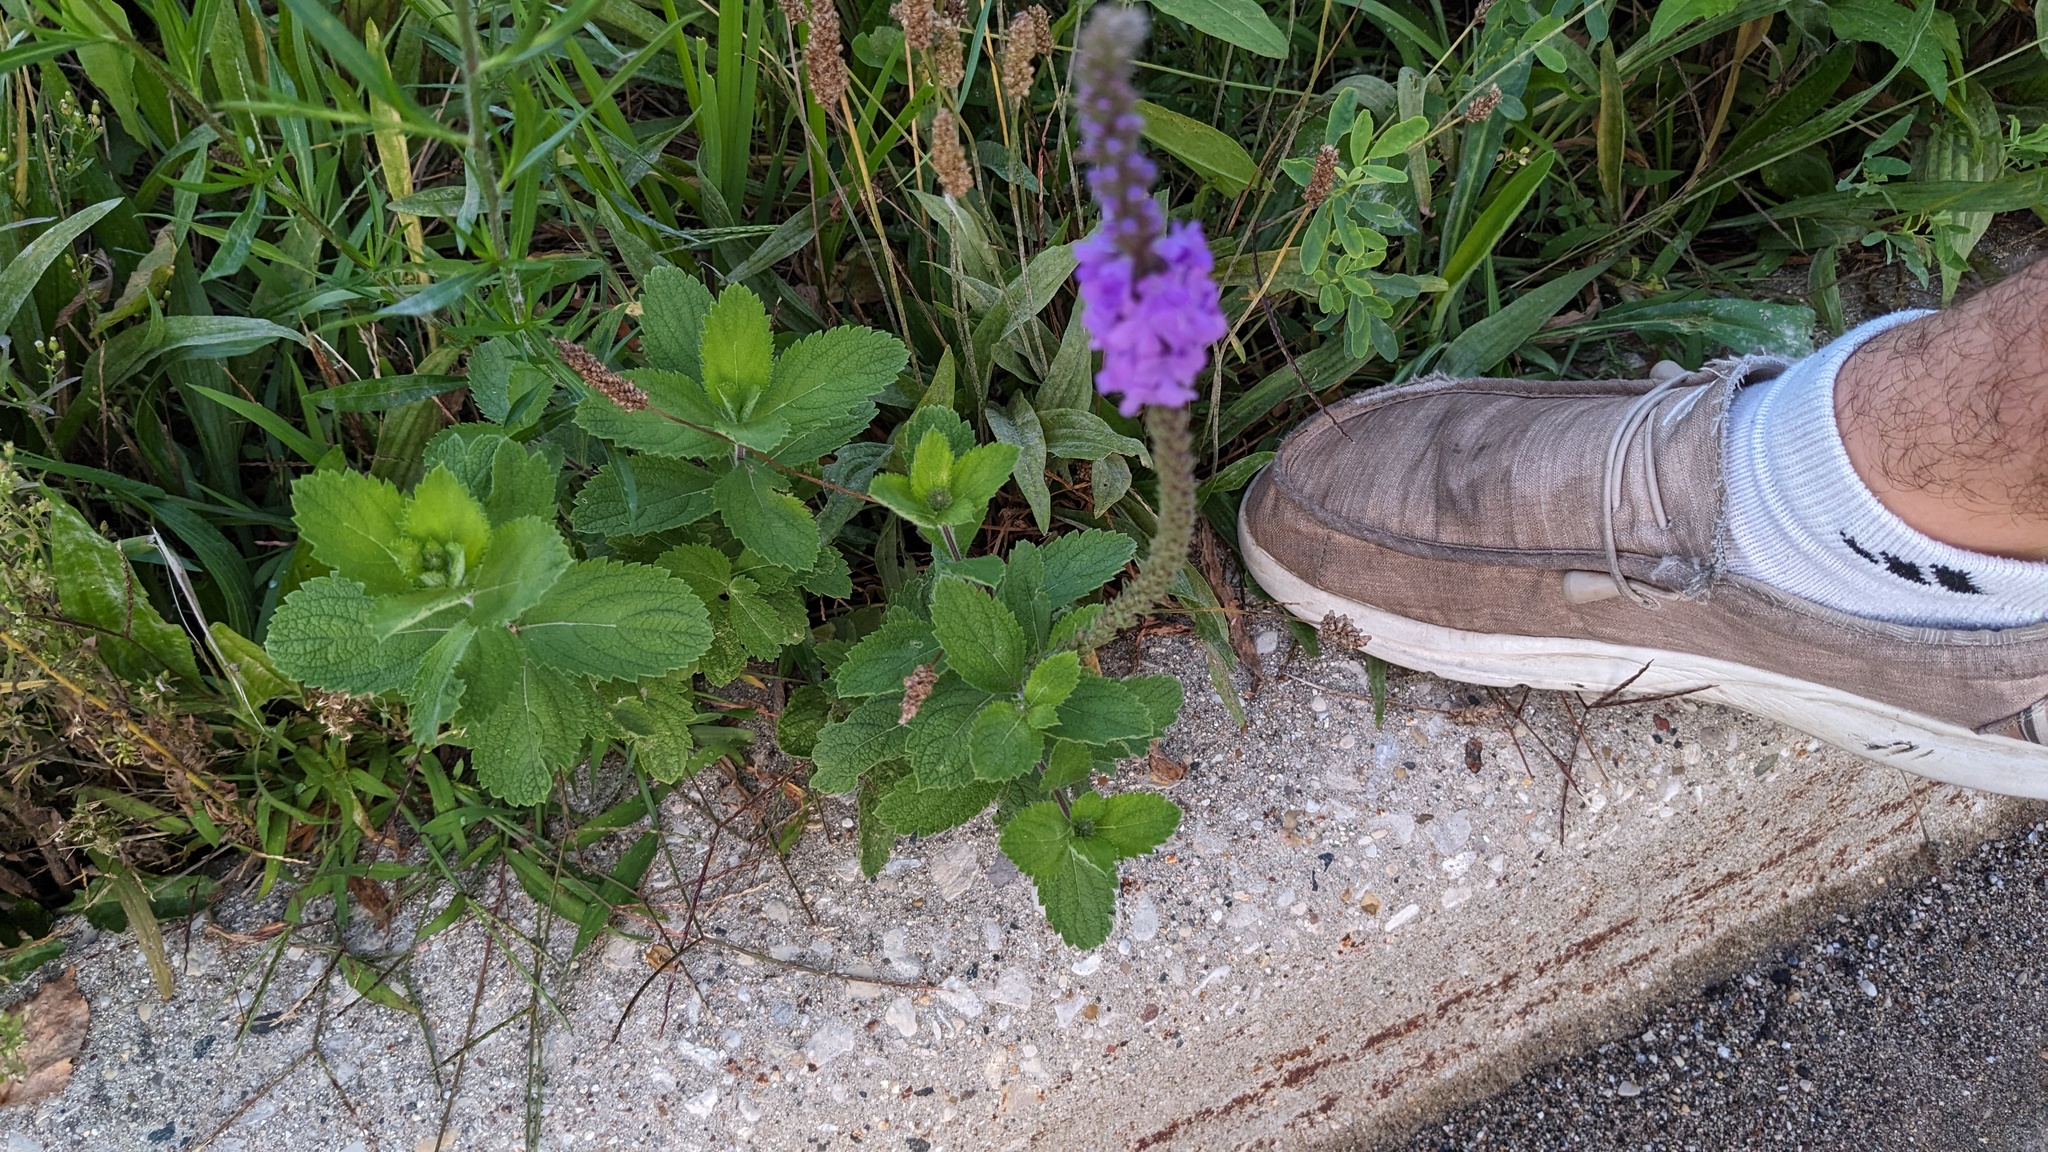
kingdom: Plantae
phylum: Tracheophyta
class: Magnoliopsida
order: Lamiales
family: Verbenaceae
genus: Verbena
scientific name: Verbena stricta
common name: Hoary vervain
